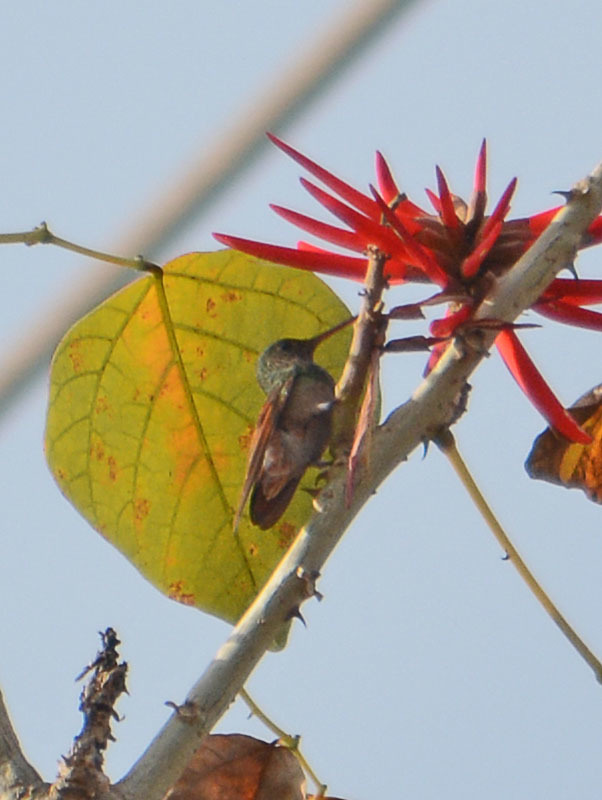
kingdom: Animalia
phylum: Chordata
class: Aves
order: Apodiformes
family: Trochilidae
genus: Saucerottia
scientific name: Saucerottia beryllina
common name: Berylline hummingbird
